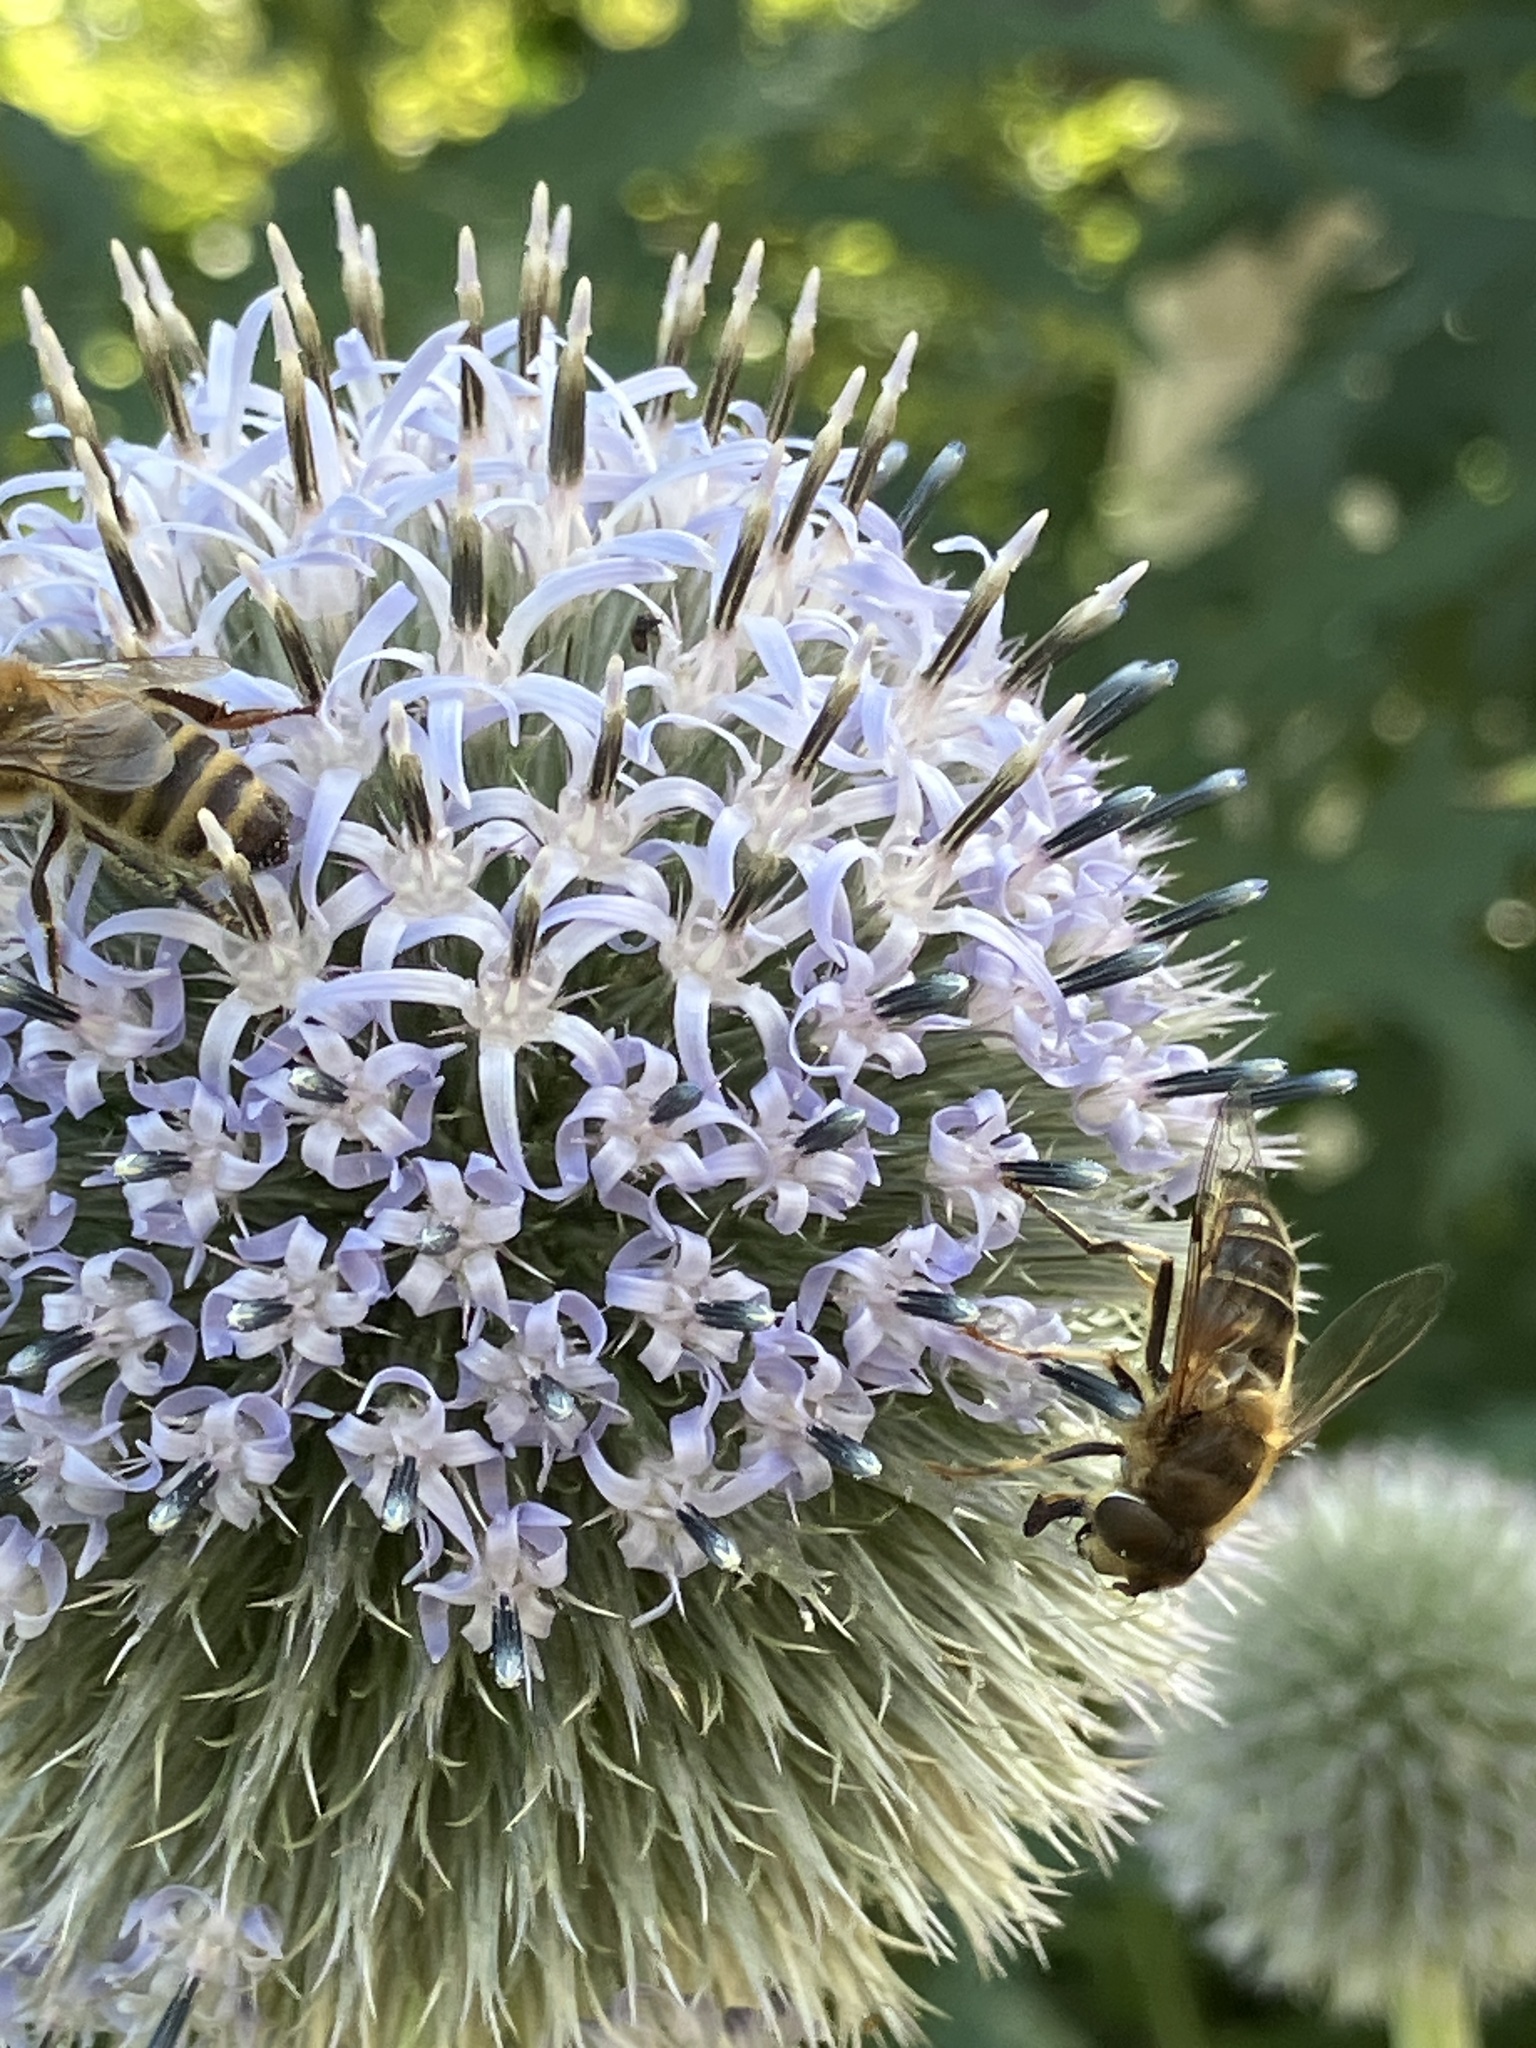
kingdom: Animalia
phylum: Arthropoda
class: Insecta
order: Diptera
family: Syrphidae
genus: Eristalis
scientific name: Eristalis pertinax
